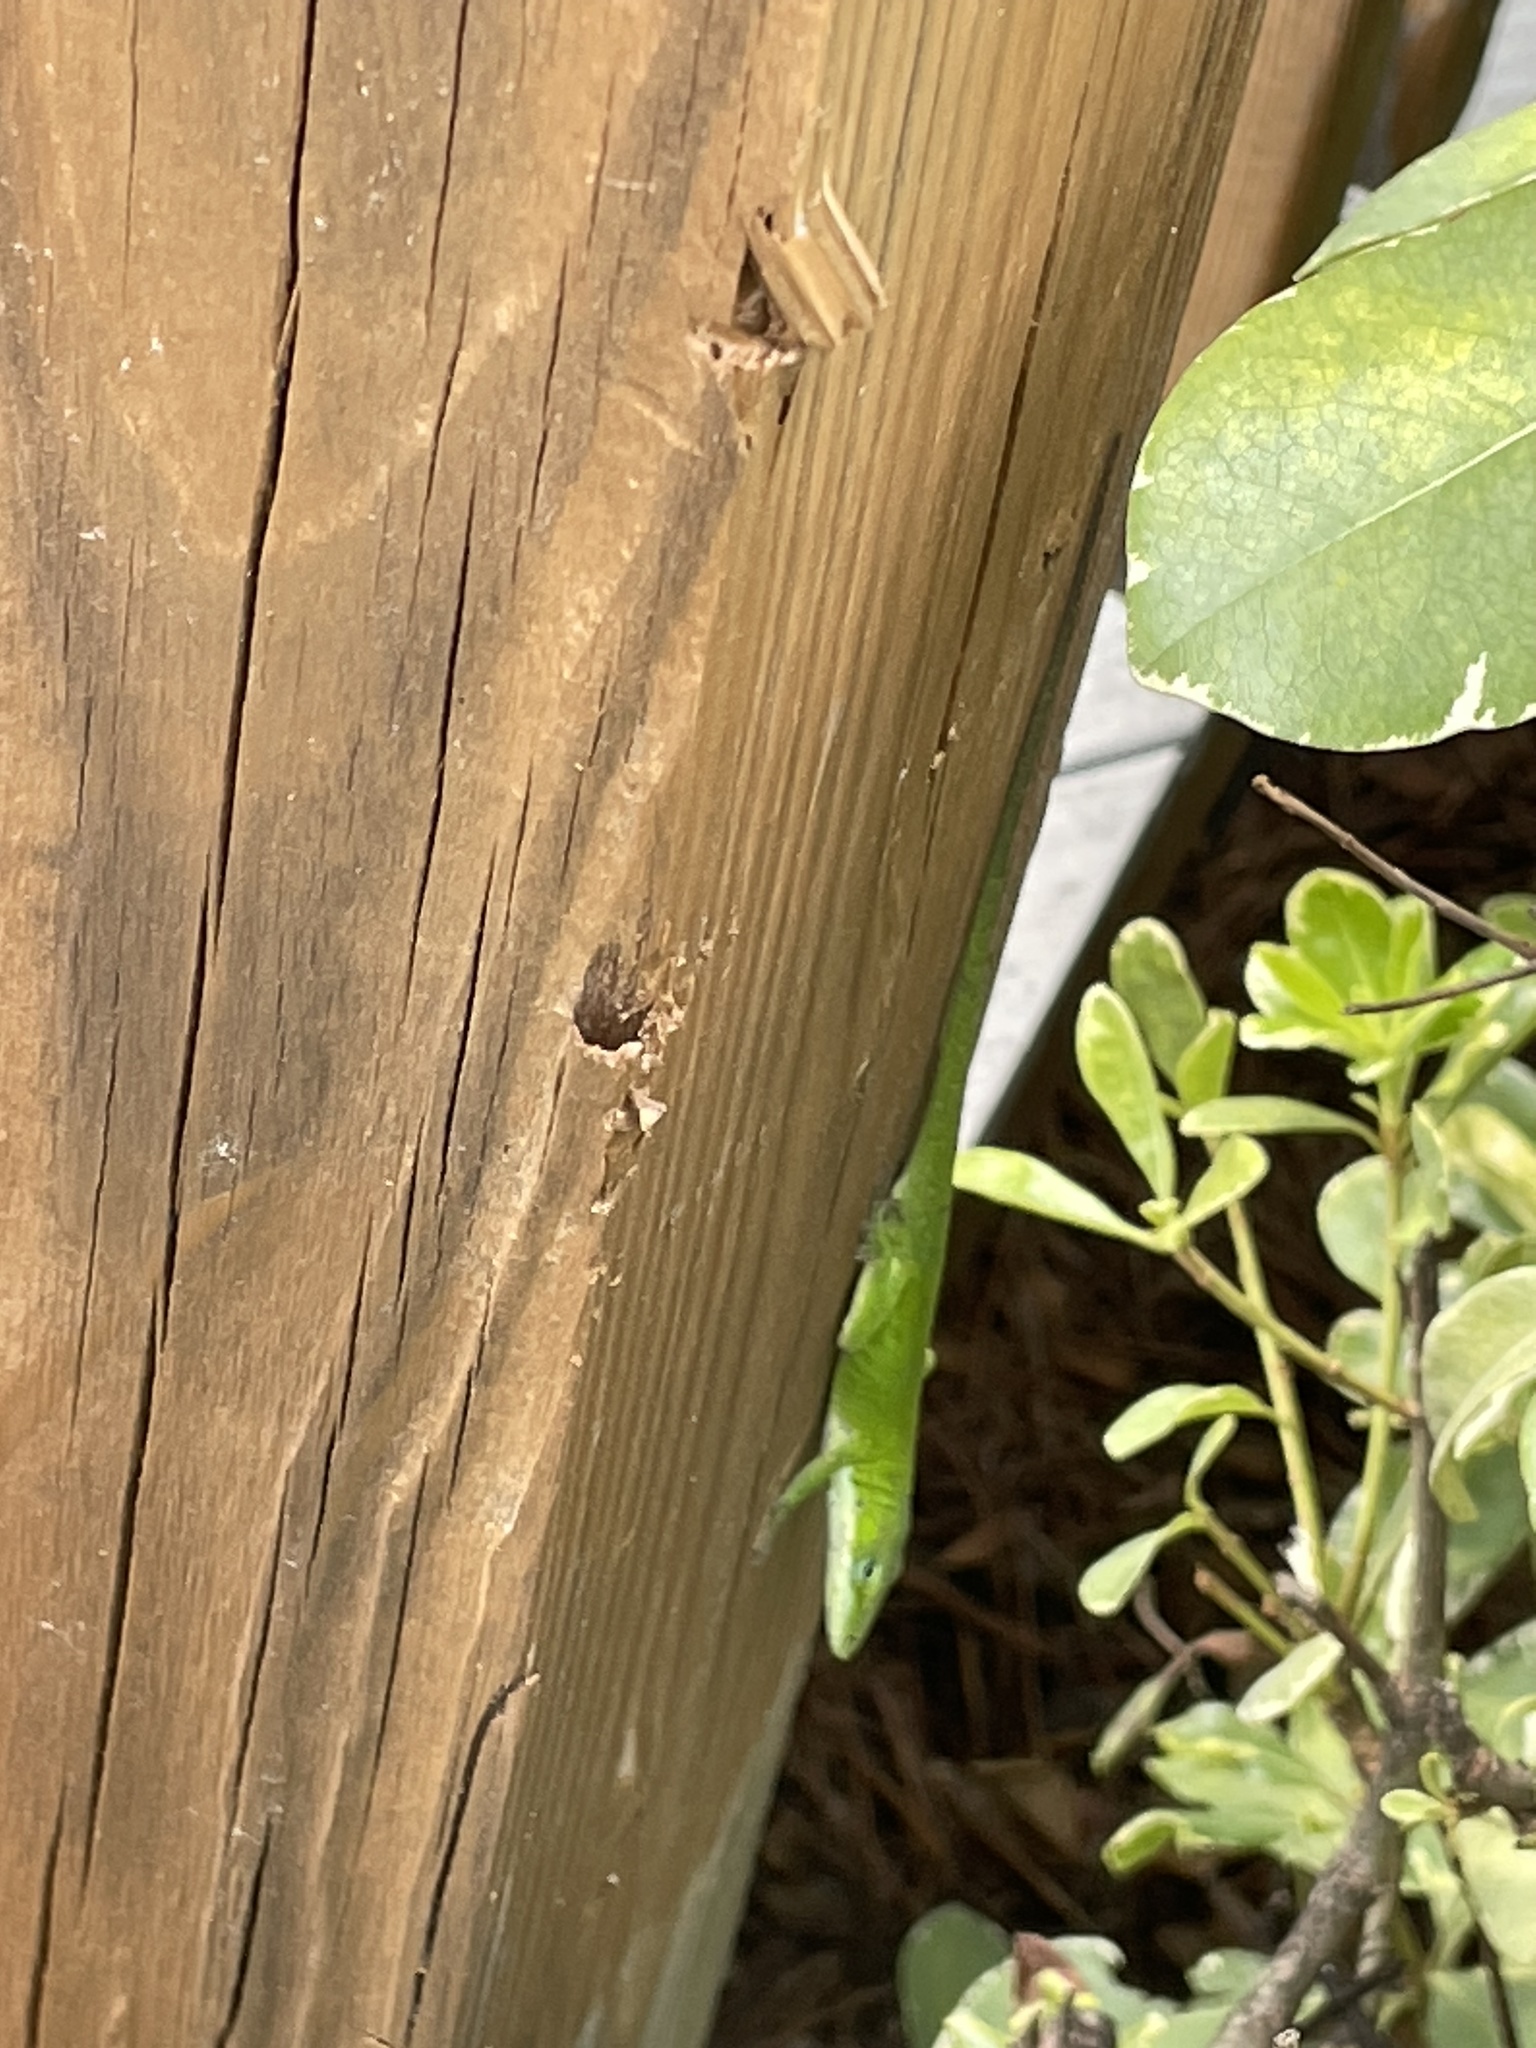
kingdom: Animalia
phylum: Chordata
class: Squamata
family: Dactyloidae
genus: Anolis
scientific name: Anolis carolinensis
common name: Green anole
